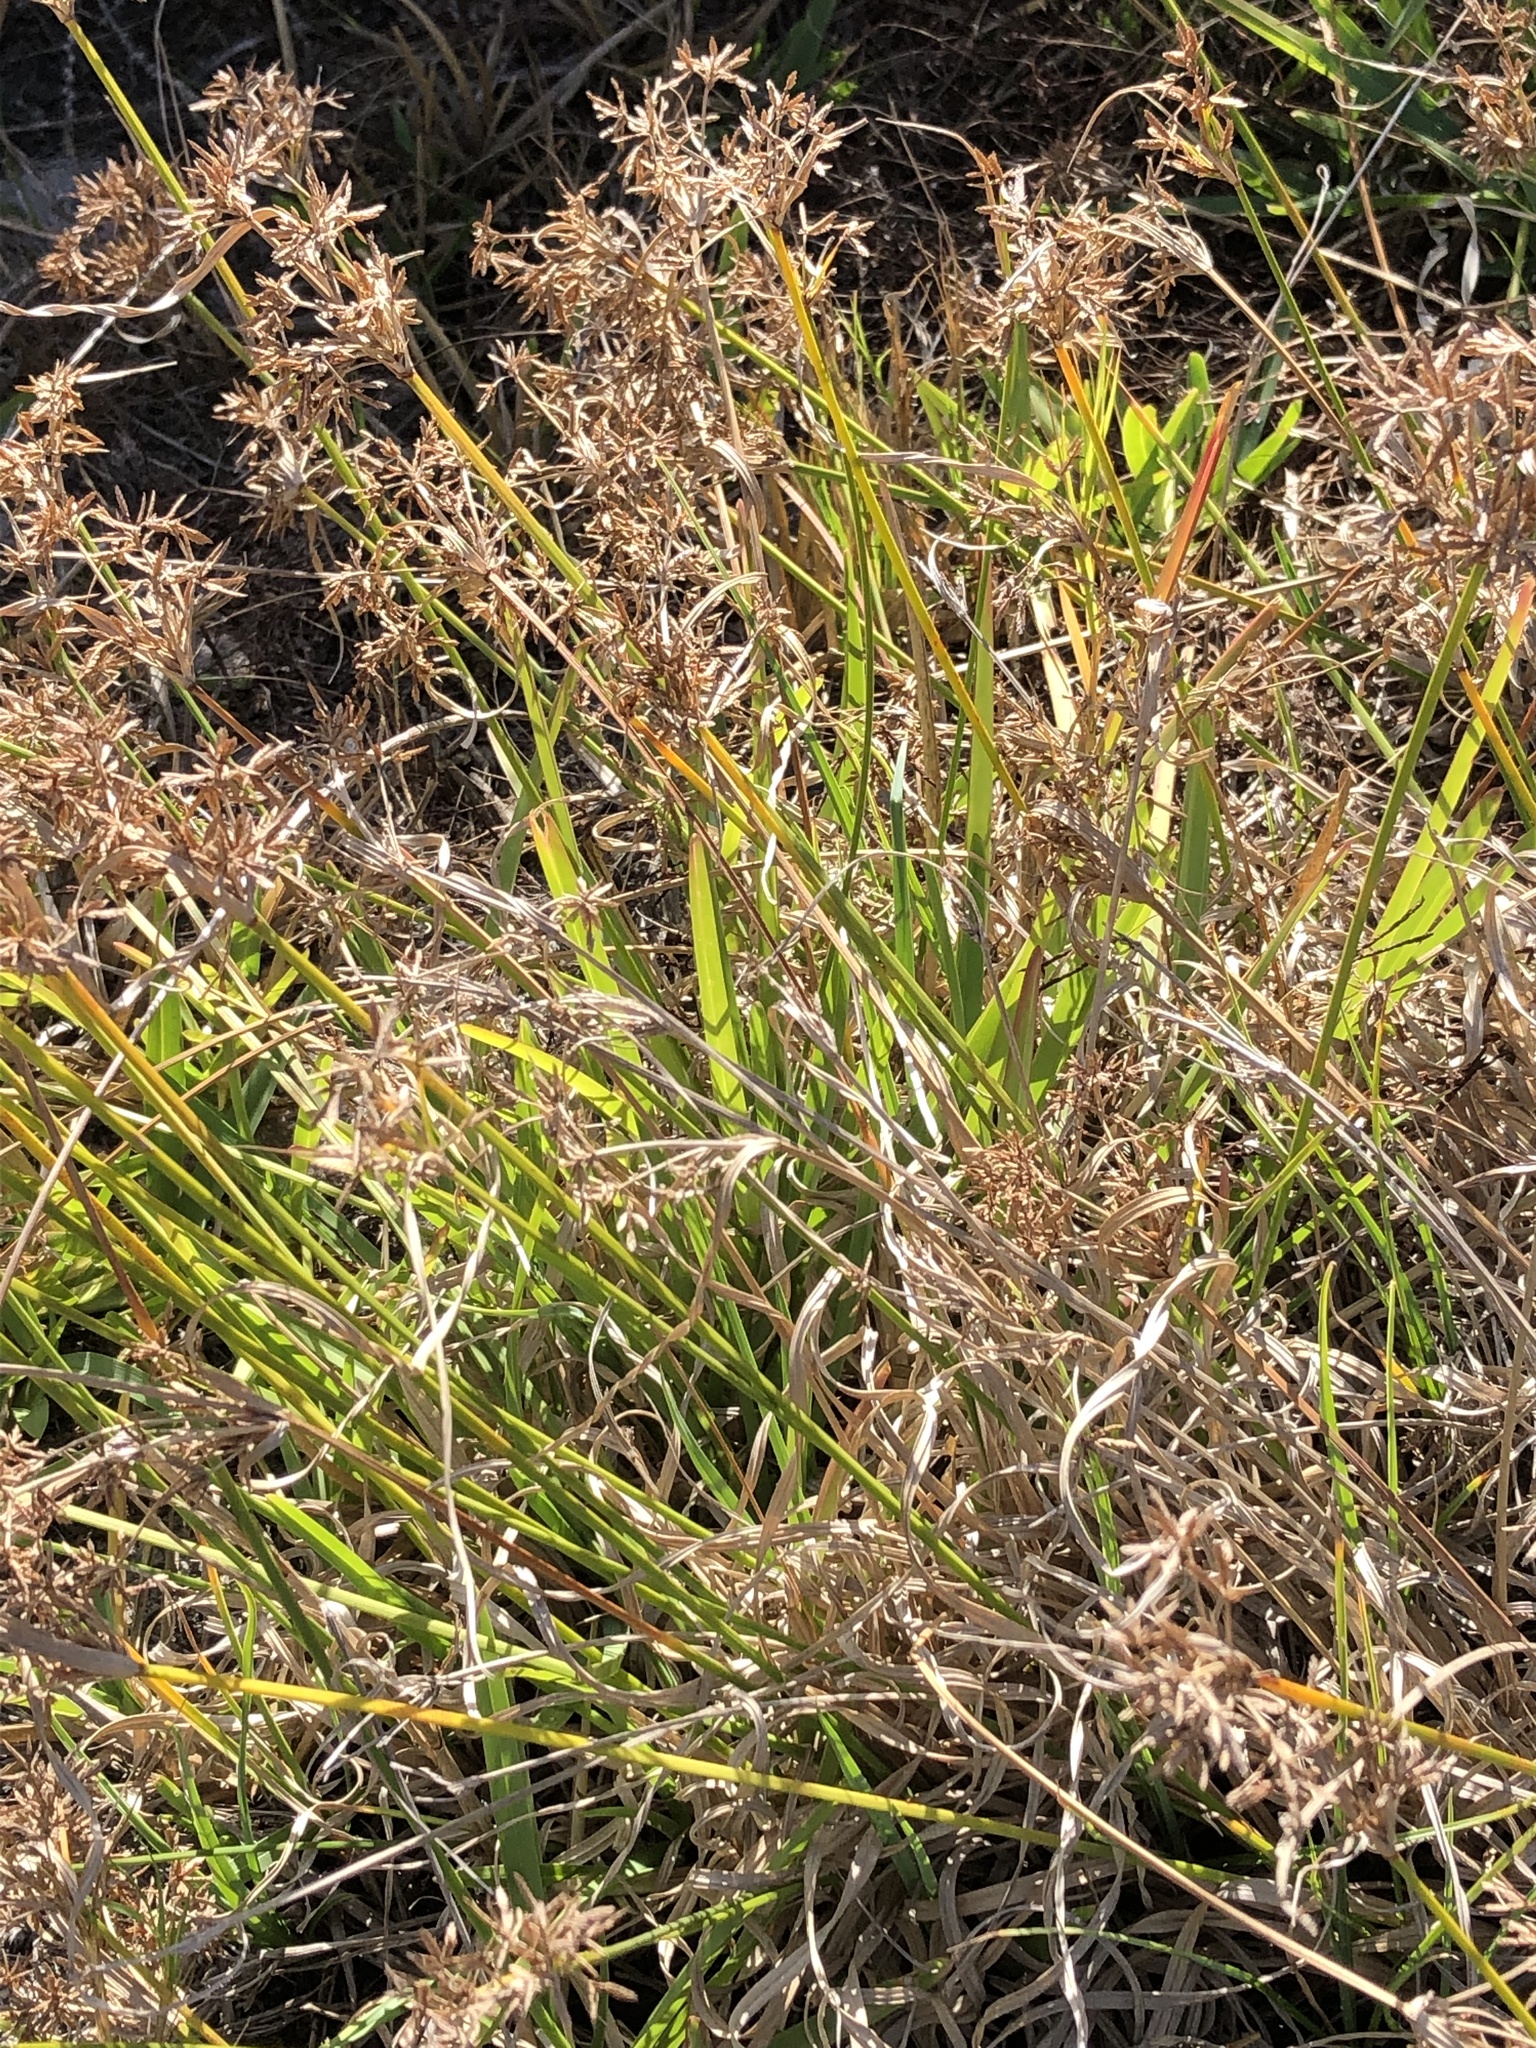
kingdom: Plantae
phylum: Tracheophyta
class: Liliopsida
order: Poales
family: Cyperaceae
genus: Cyperus
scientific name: Cyperus esculentus
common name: Yellow nutsedge
